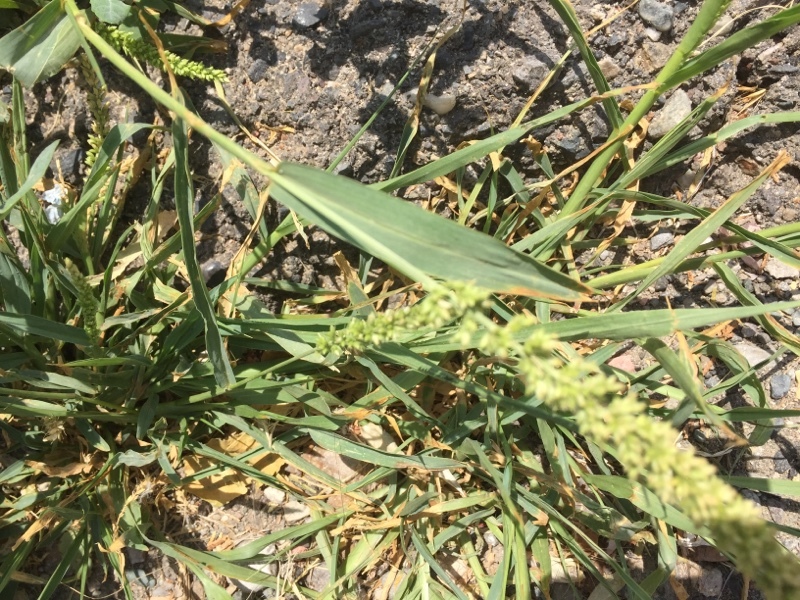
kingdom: Plantae
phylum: Tracheophyta
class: Liliopsida
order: Poales
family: Poaceae
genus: Setaria
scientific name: Setaria verticillata
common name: Hooked bristlegrass
